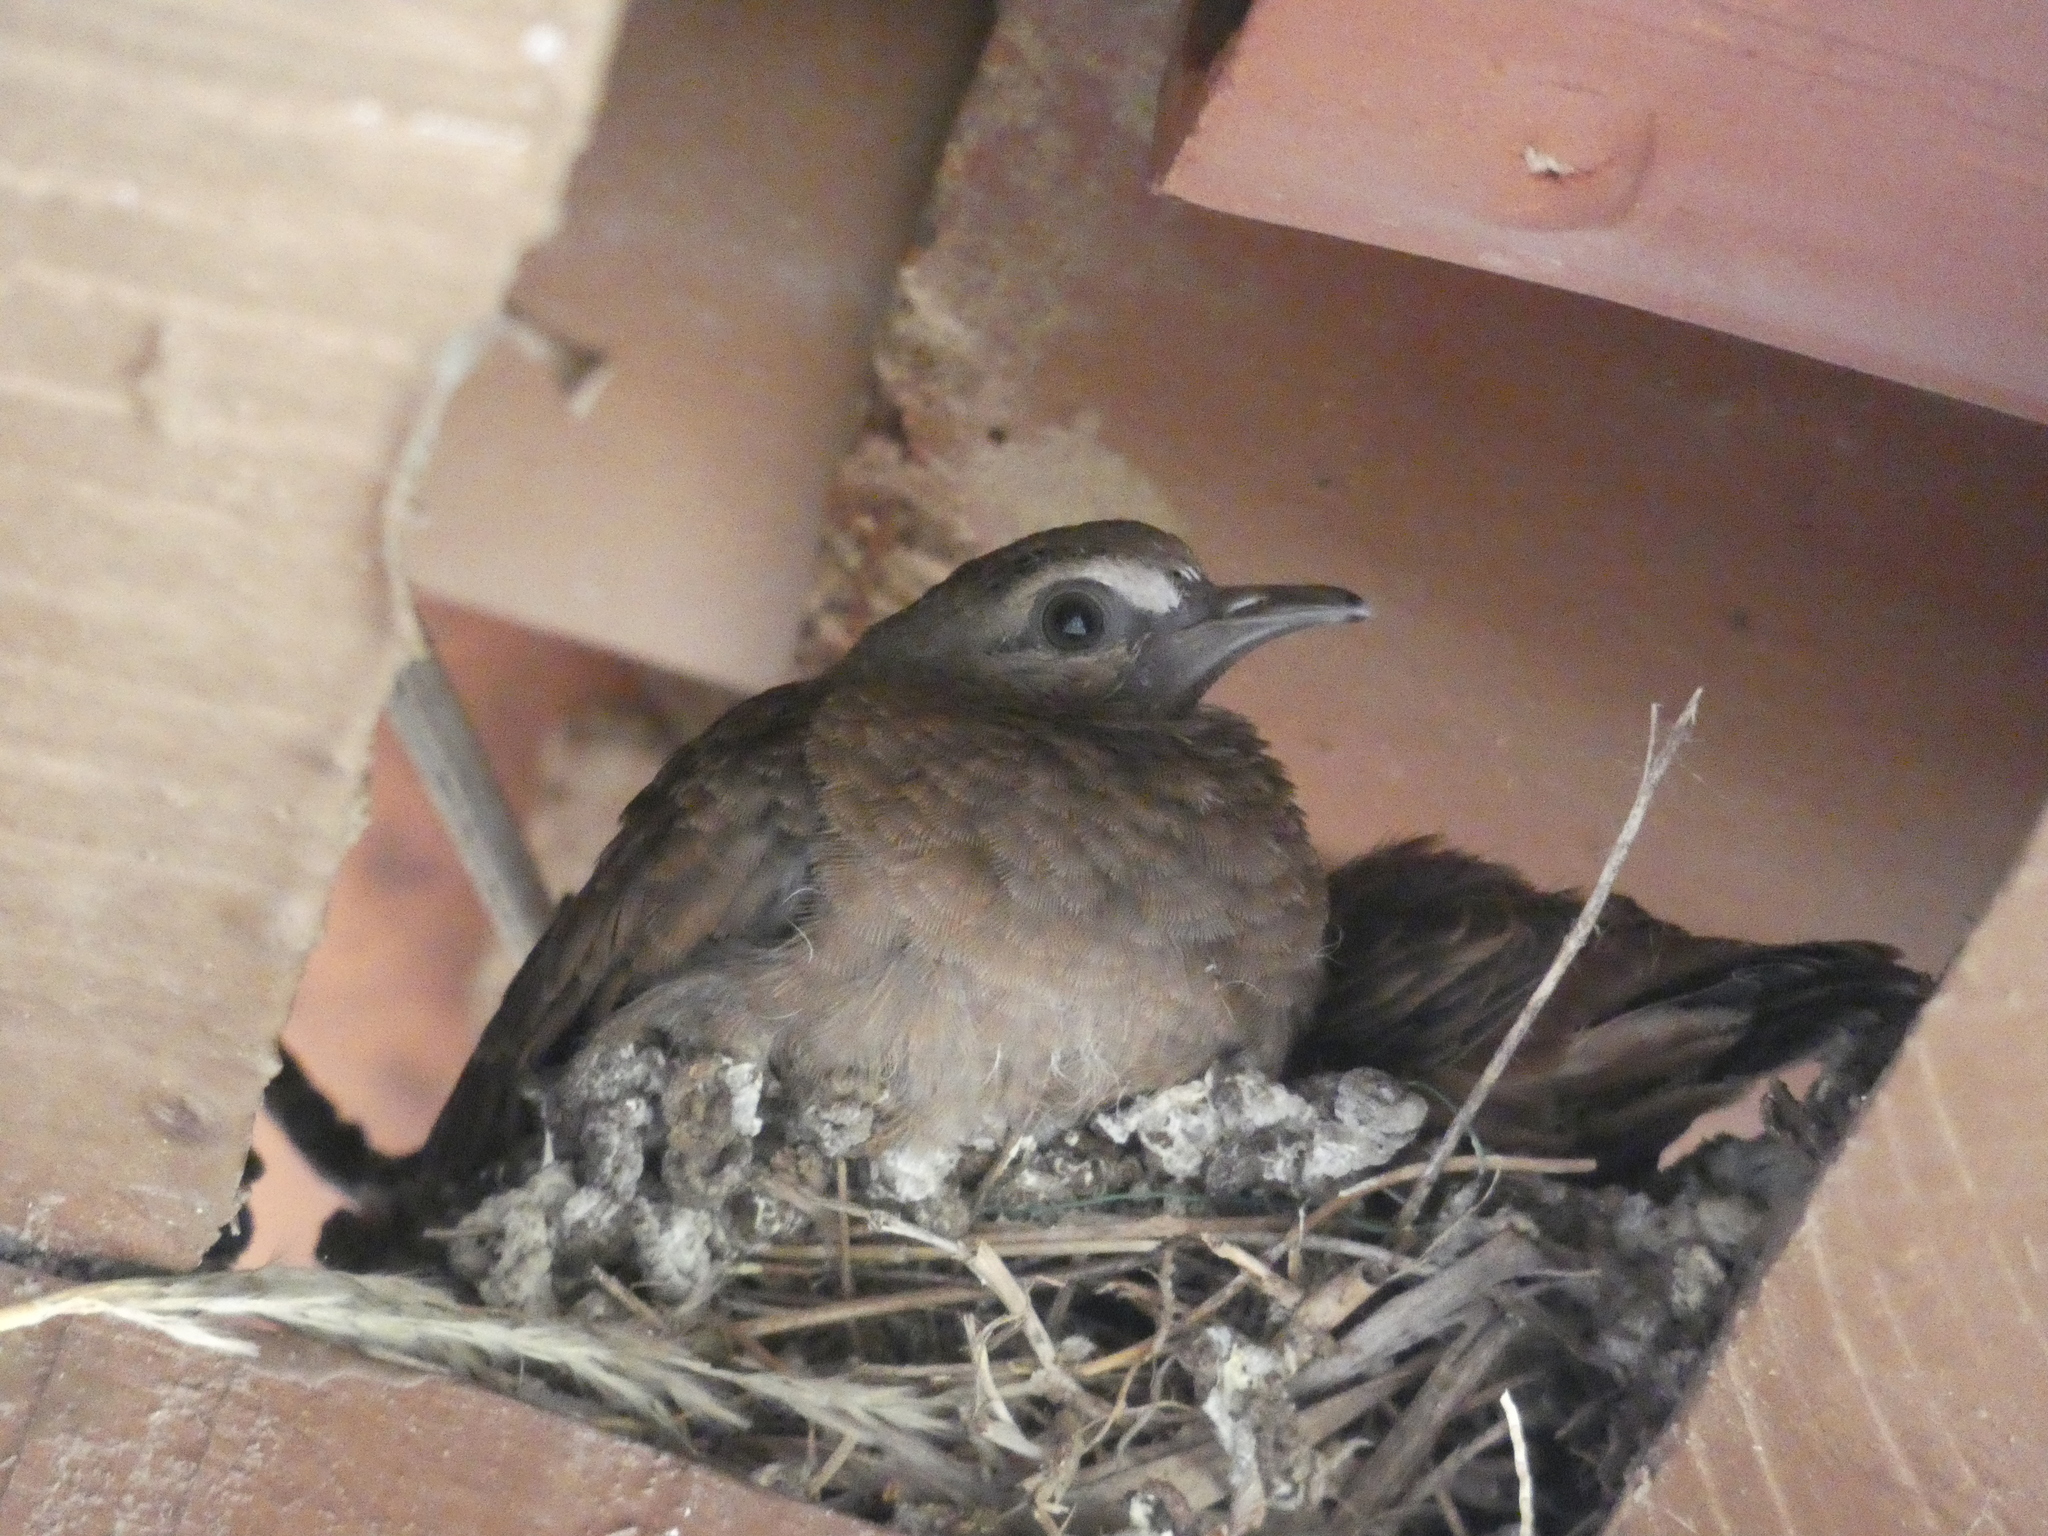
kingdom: Animalia
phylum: Chordata
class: Aves
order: Columbiformes
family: Columbidae
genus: Columbina
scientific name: Columbina talpacoti
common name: Ruddy ground dove
